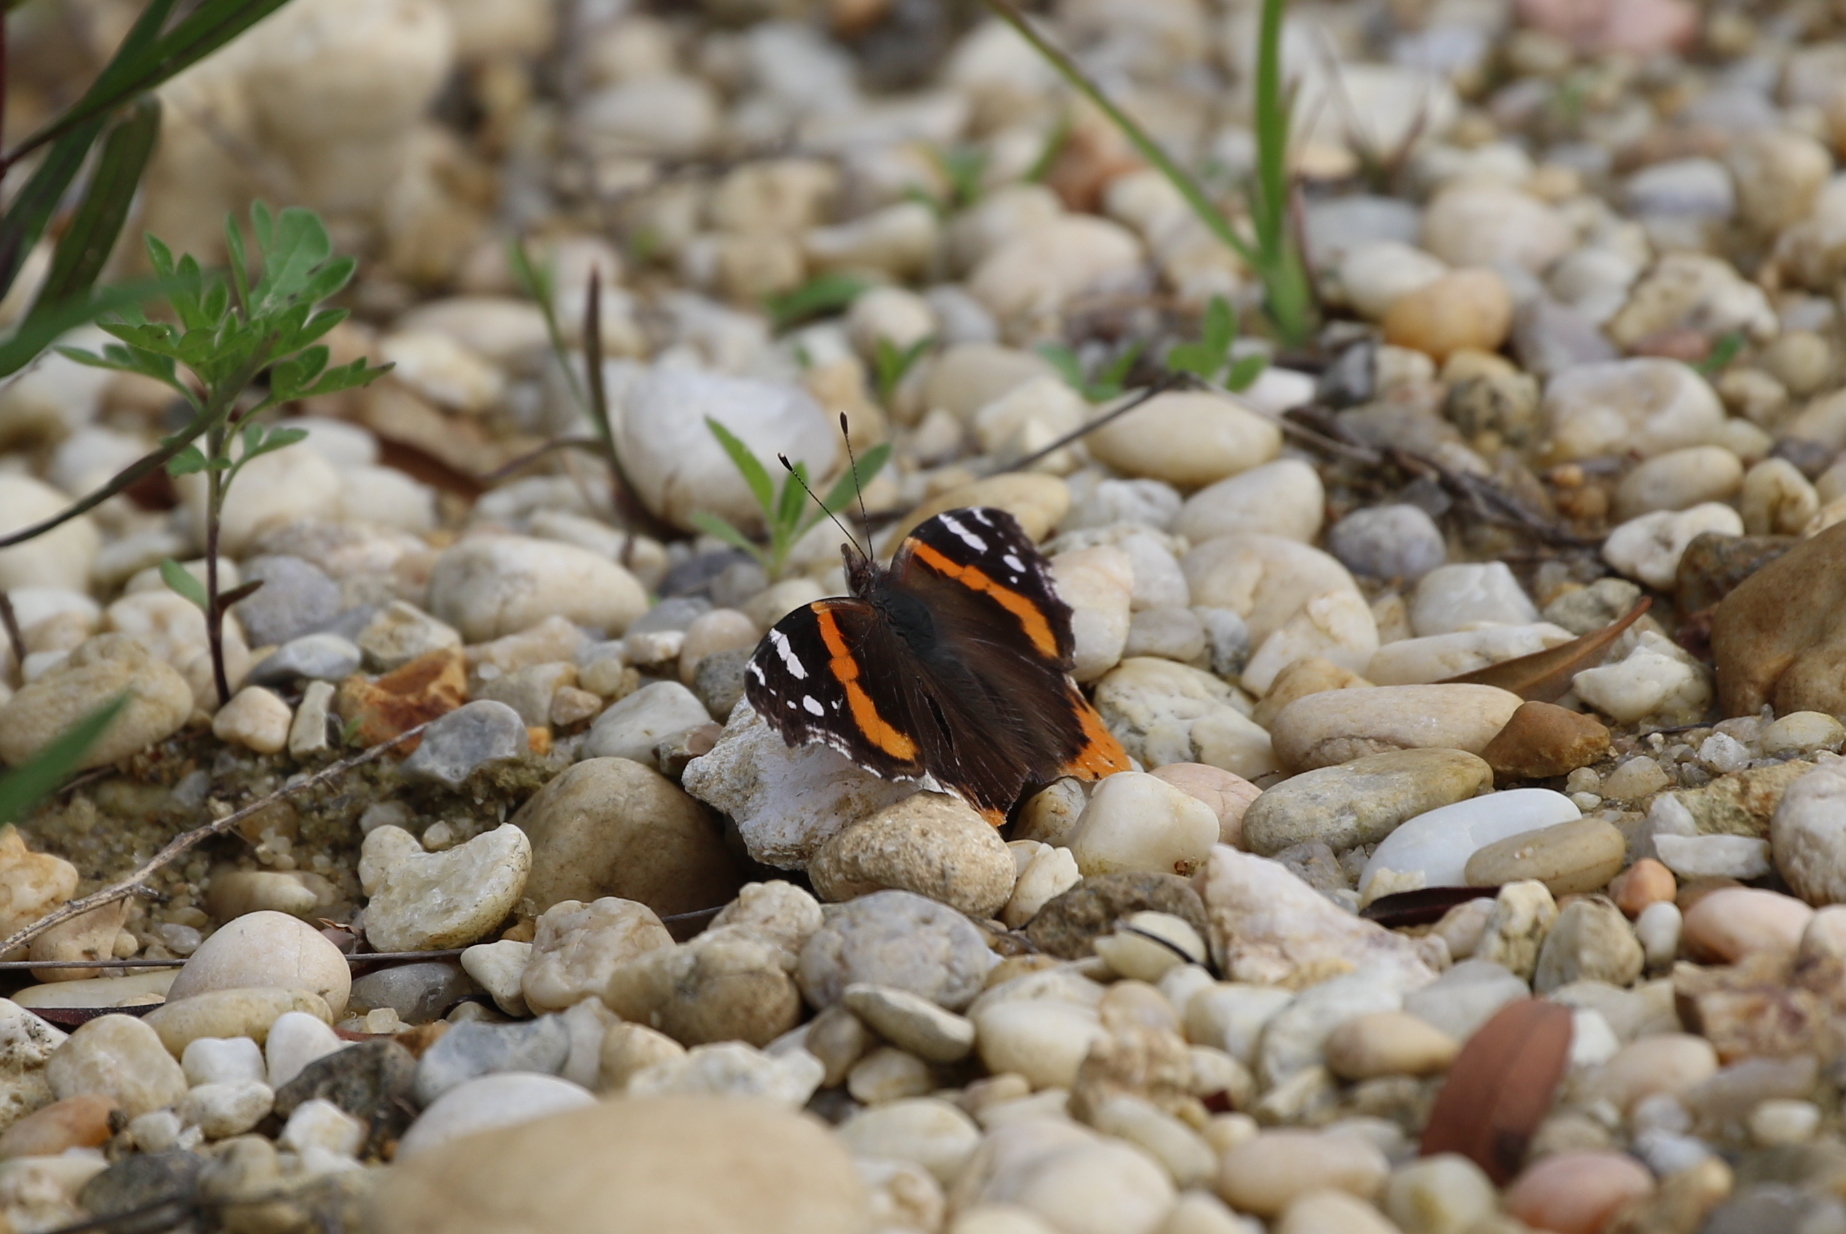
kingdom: Animalia
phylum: Arthropoda
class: Insecta
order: Lepidoptera
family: Nymphalidae
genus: Vanessa
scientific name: Vanessa atalanta
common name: Red admiral
